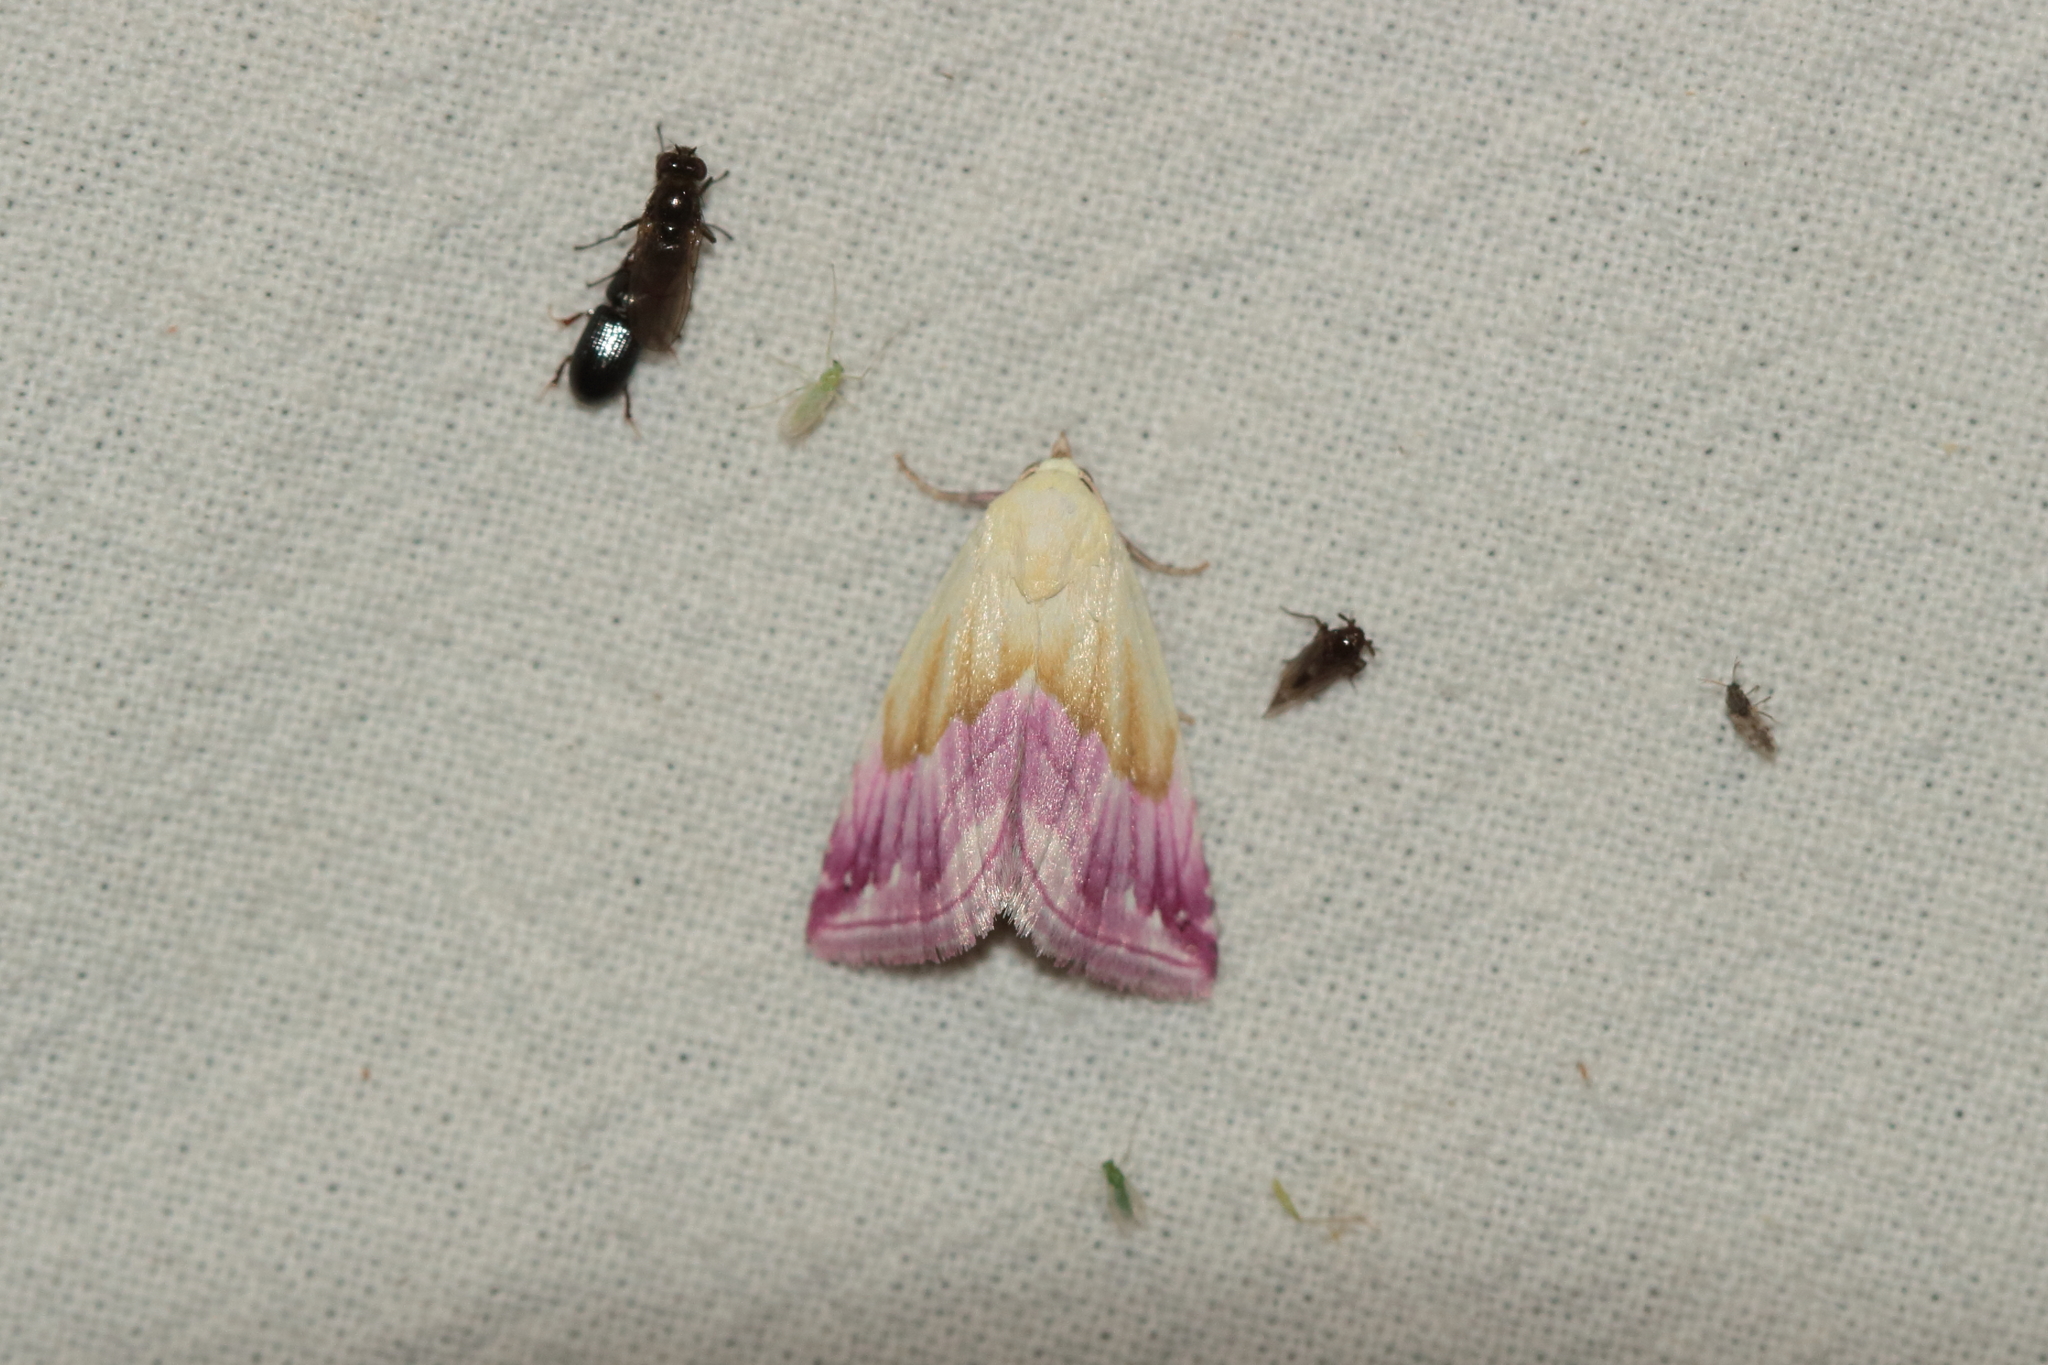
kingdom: Animalia
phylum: Arthropoda
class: Insecta
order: Lepidoptera
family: Noctuidae
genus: Eublemma
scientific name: Eublemma purpurina
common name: Beautiful marbled
